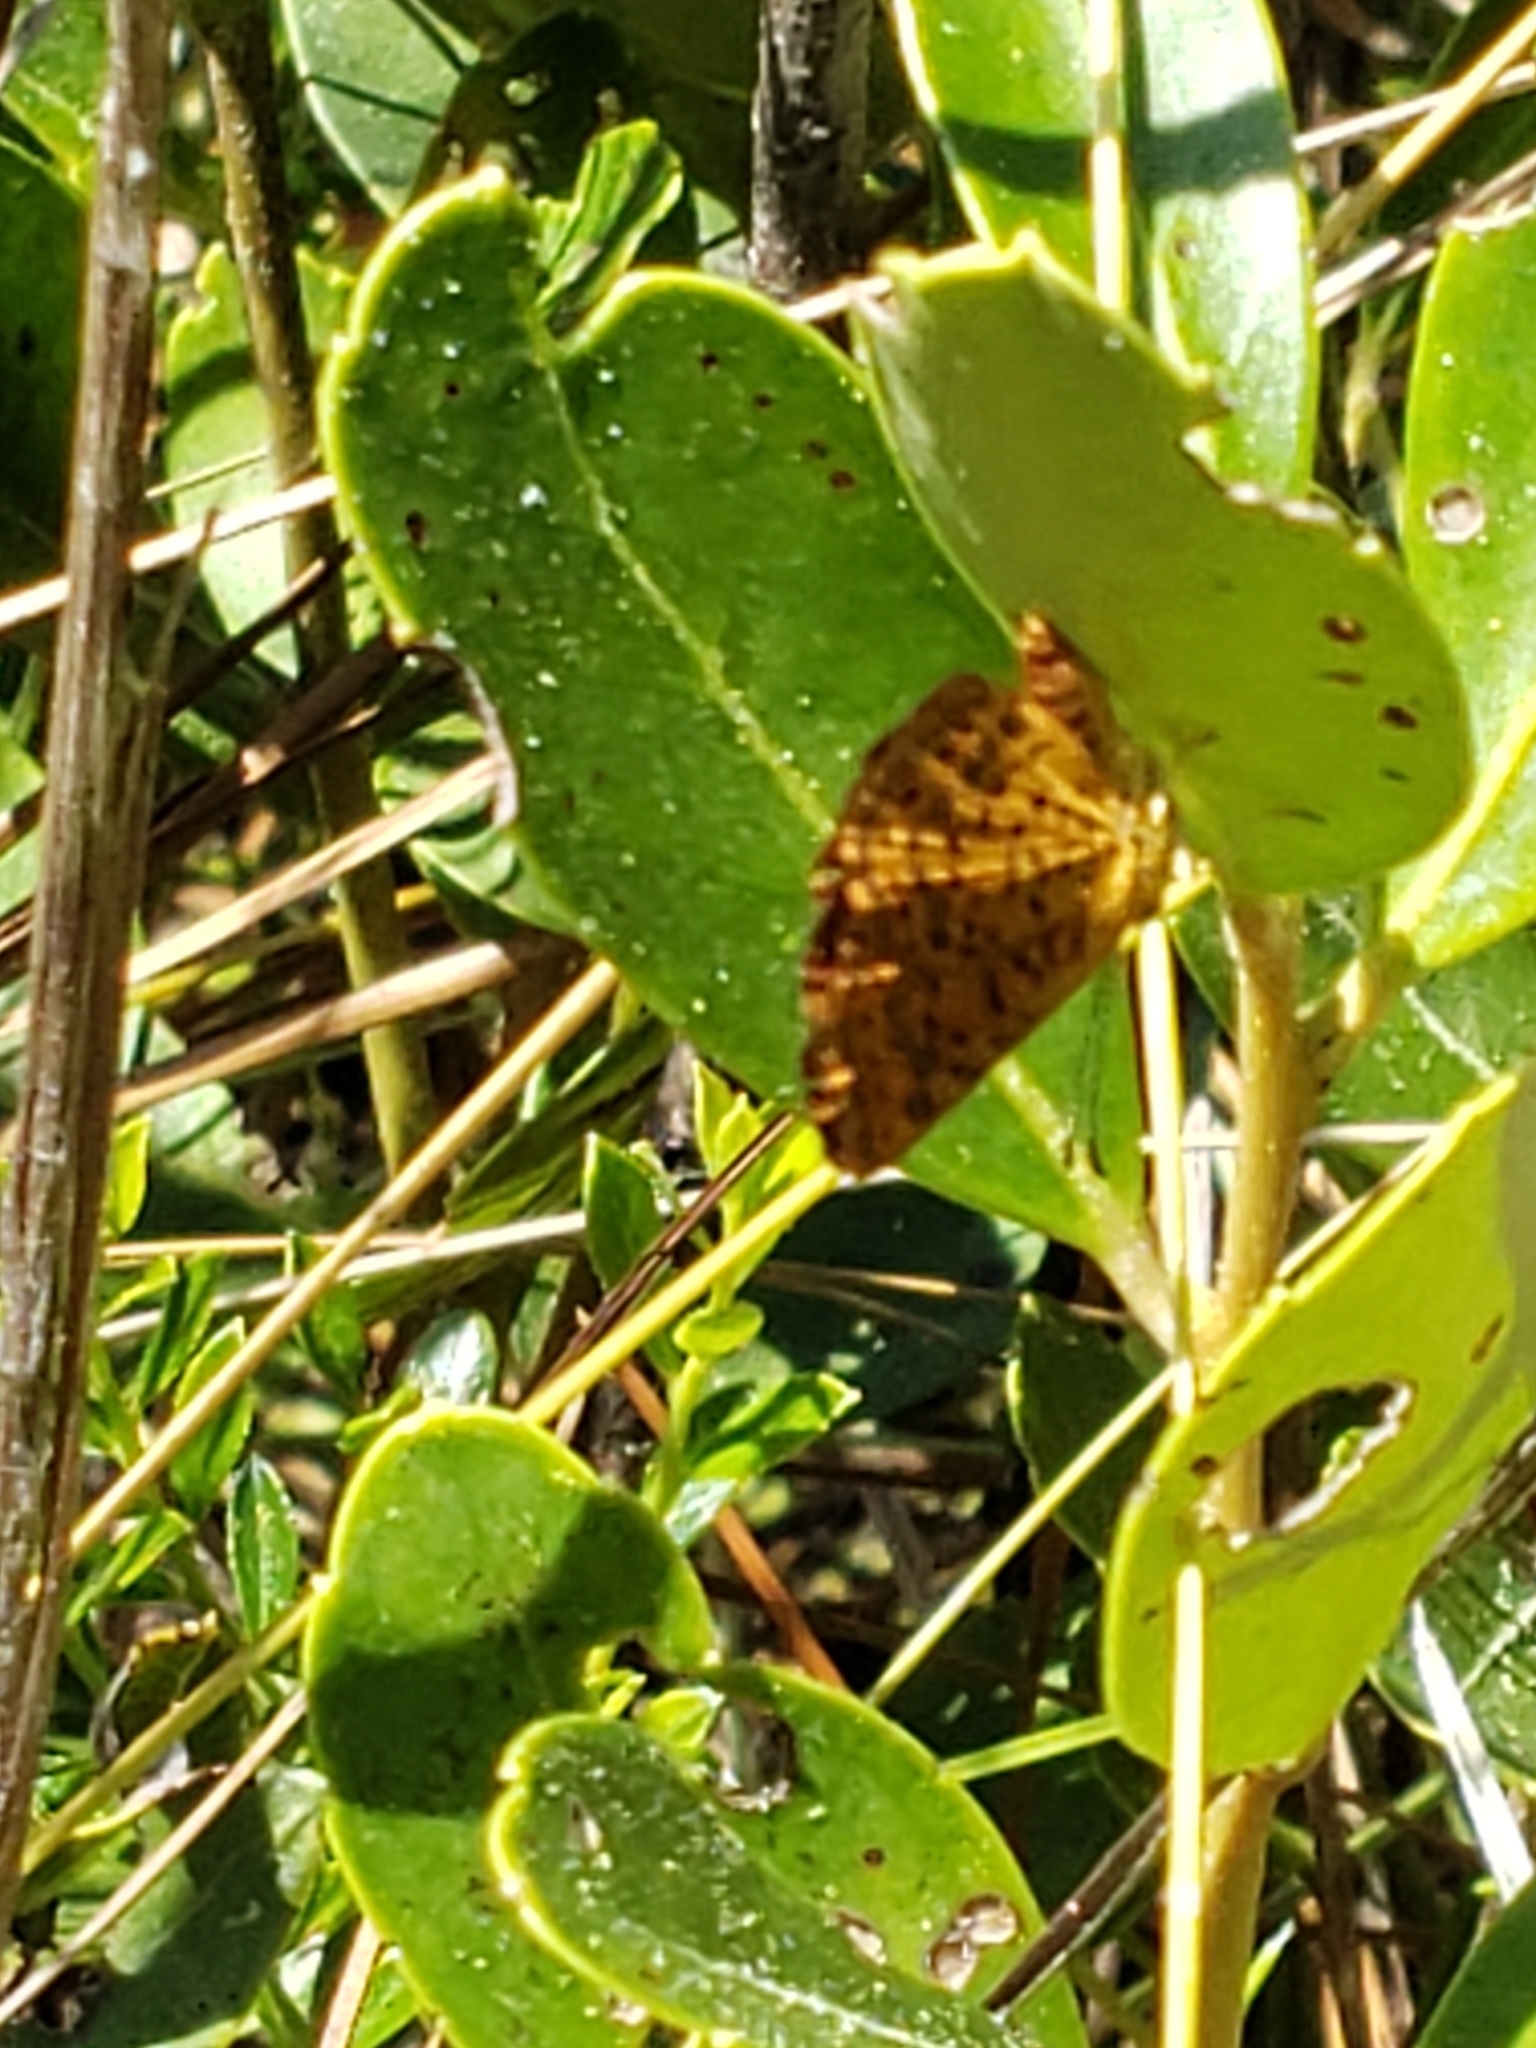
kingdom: Animalia
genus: Calephelis
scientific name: Calephelis virginiensis
